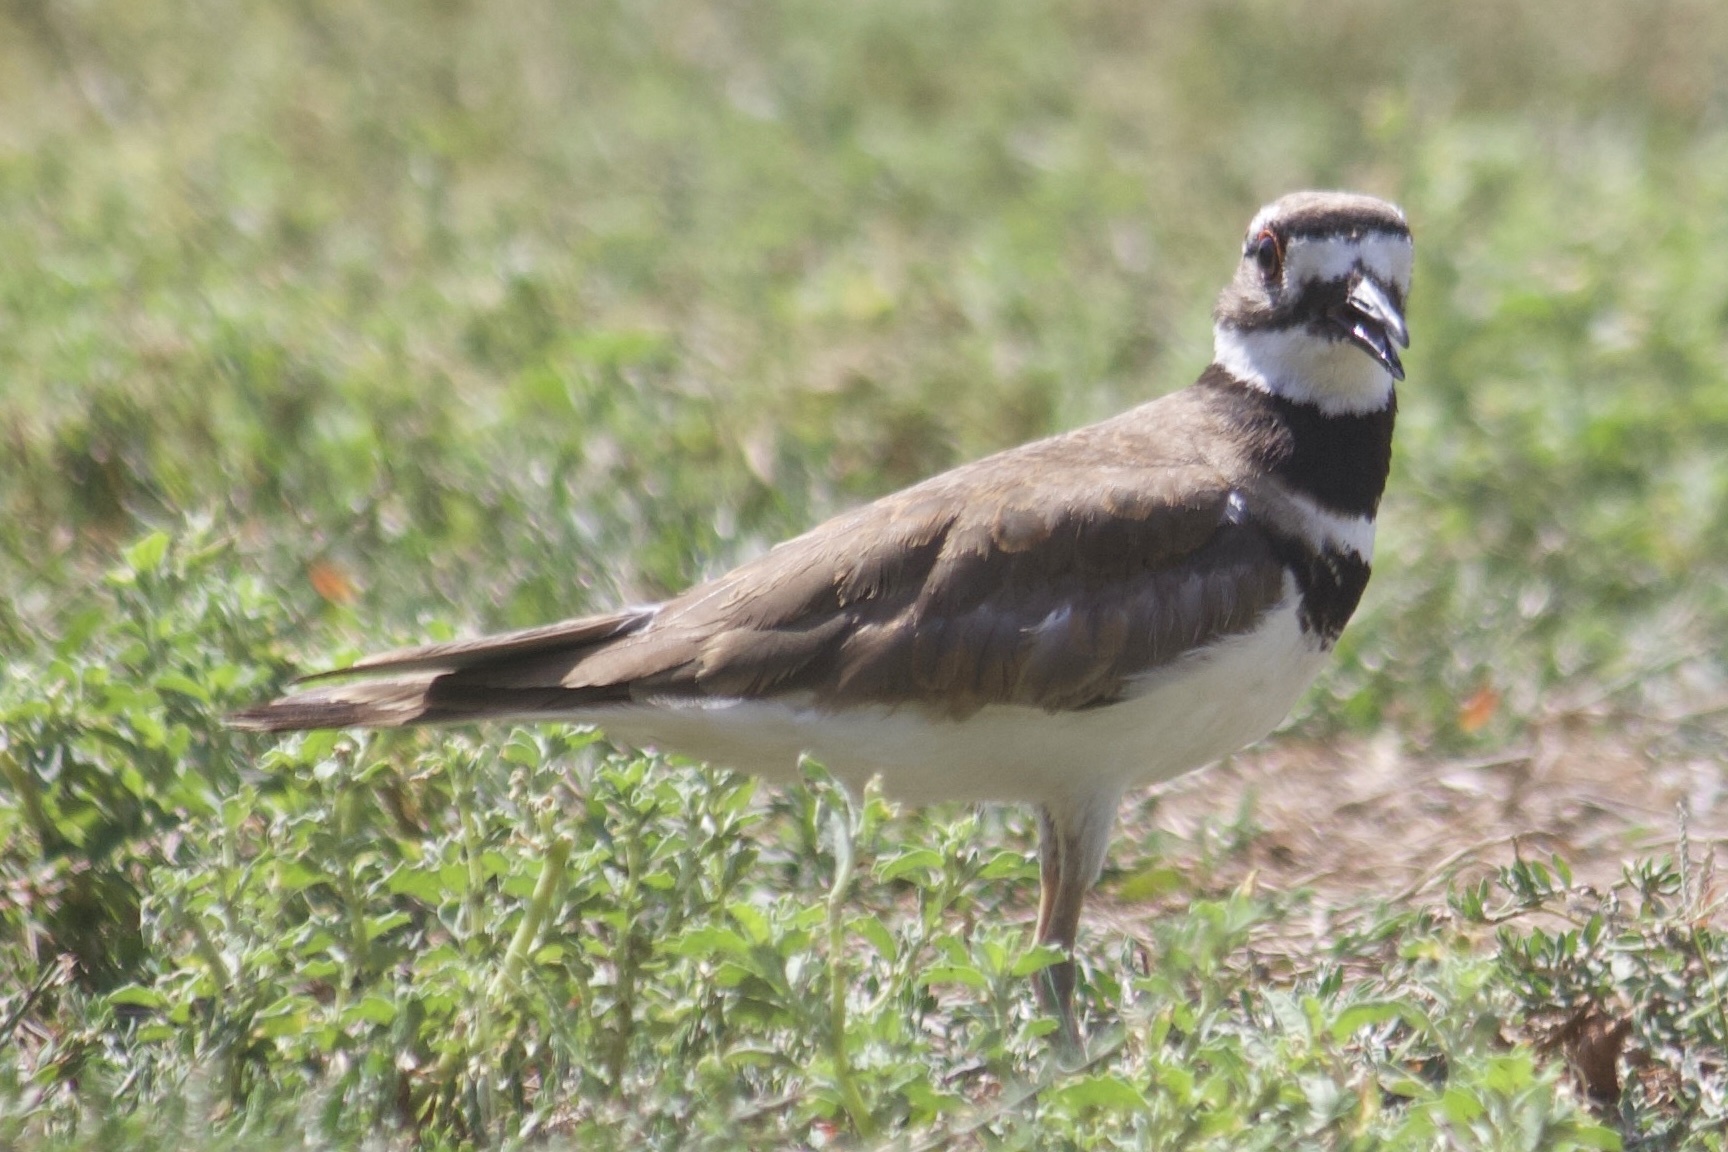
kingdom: Animalia
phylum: Chordata
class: Aves
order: Charadriiformes
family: Charadriidae
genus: Charadrius
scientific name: Charadrius vociferus
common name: Killdeer
